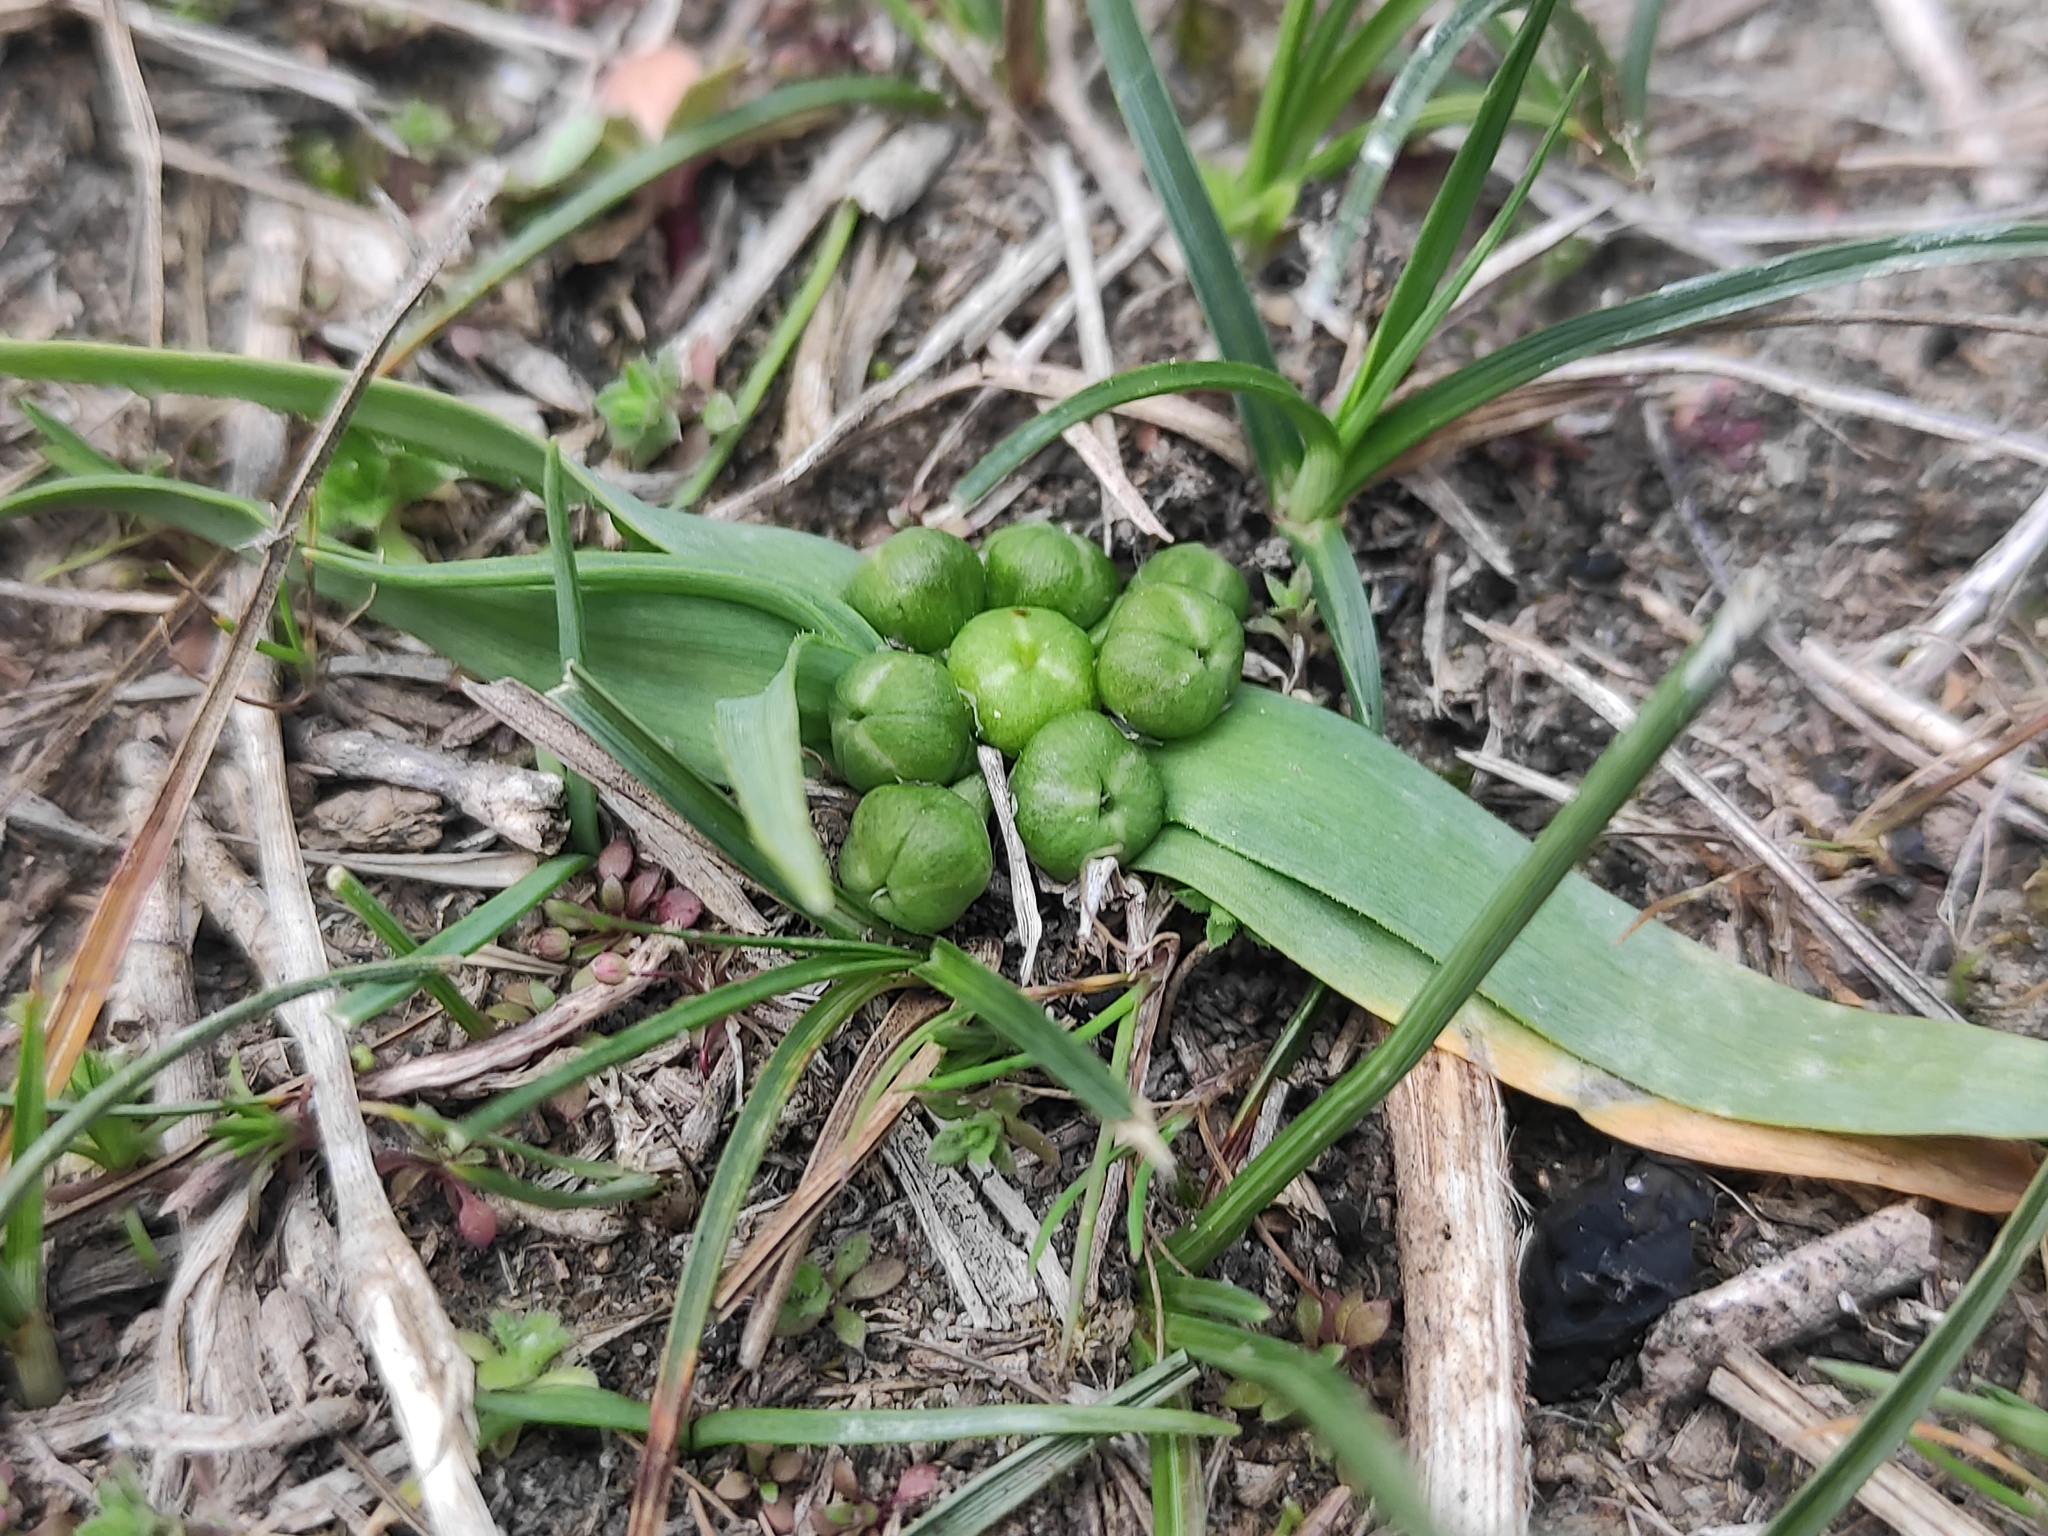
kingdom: Plantae
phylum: Tracheophyta
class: Liliopsida
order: Asparagales
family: Amaryllidaceae
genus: Allium
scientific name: Allium chamaemoly
